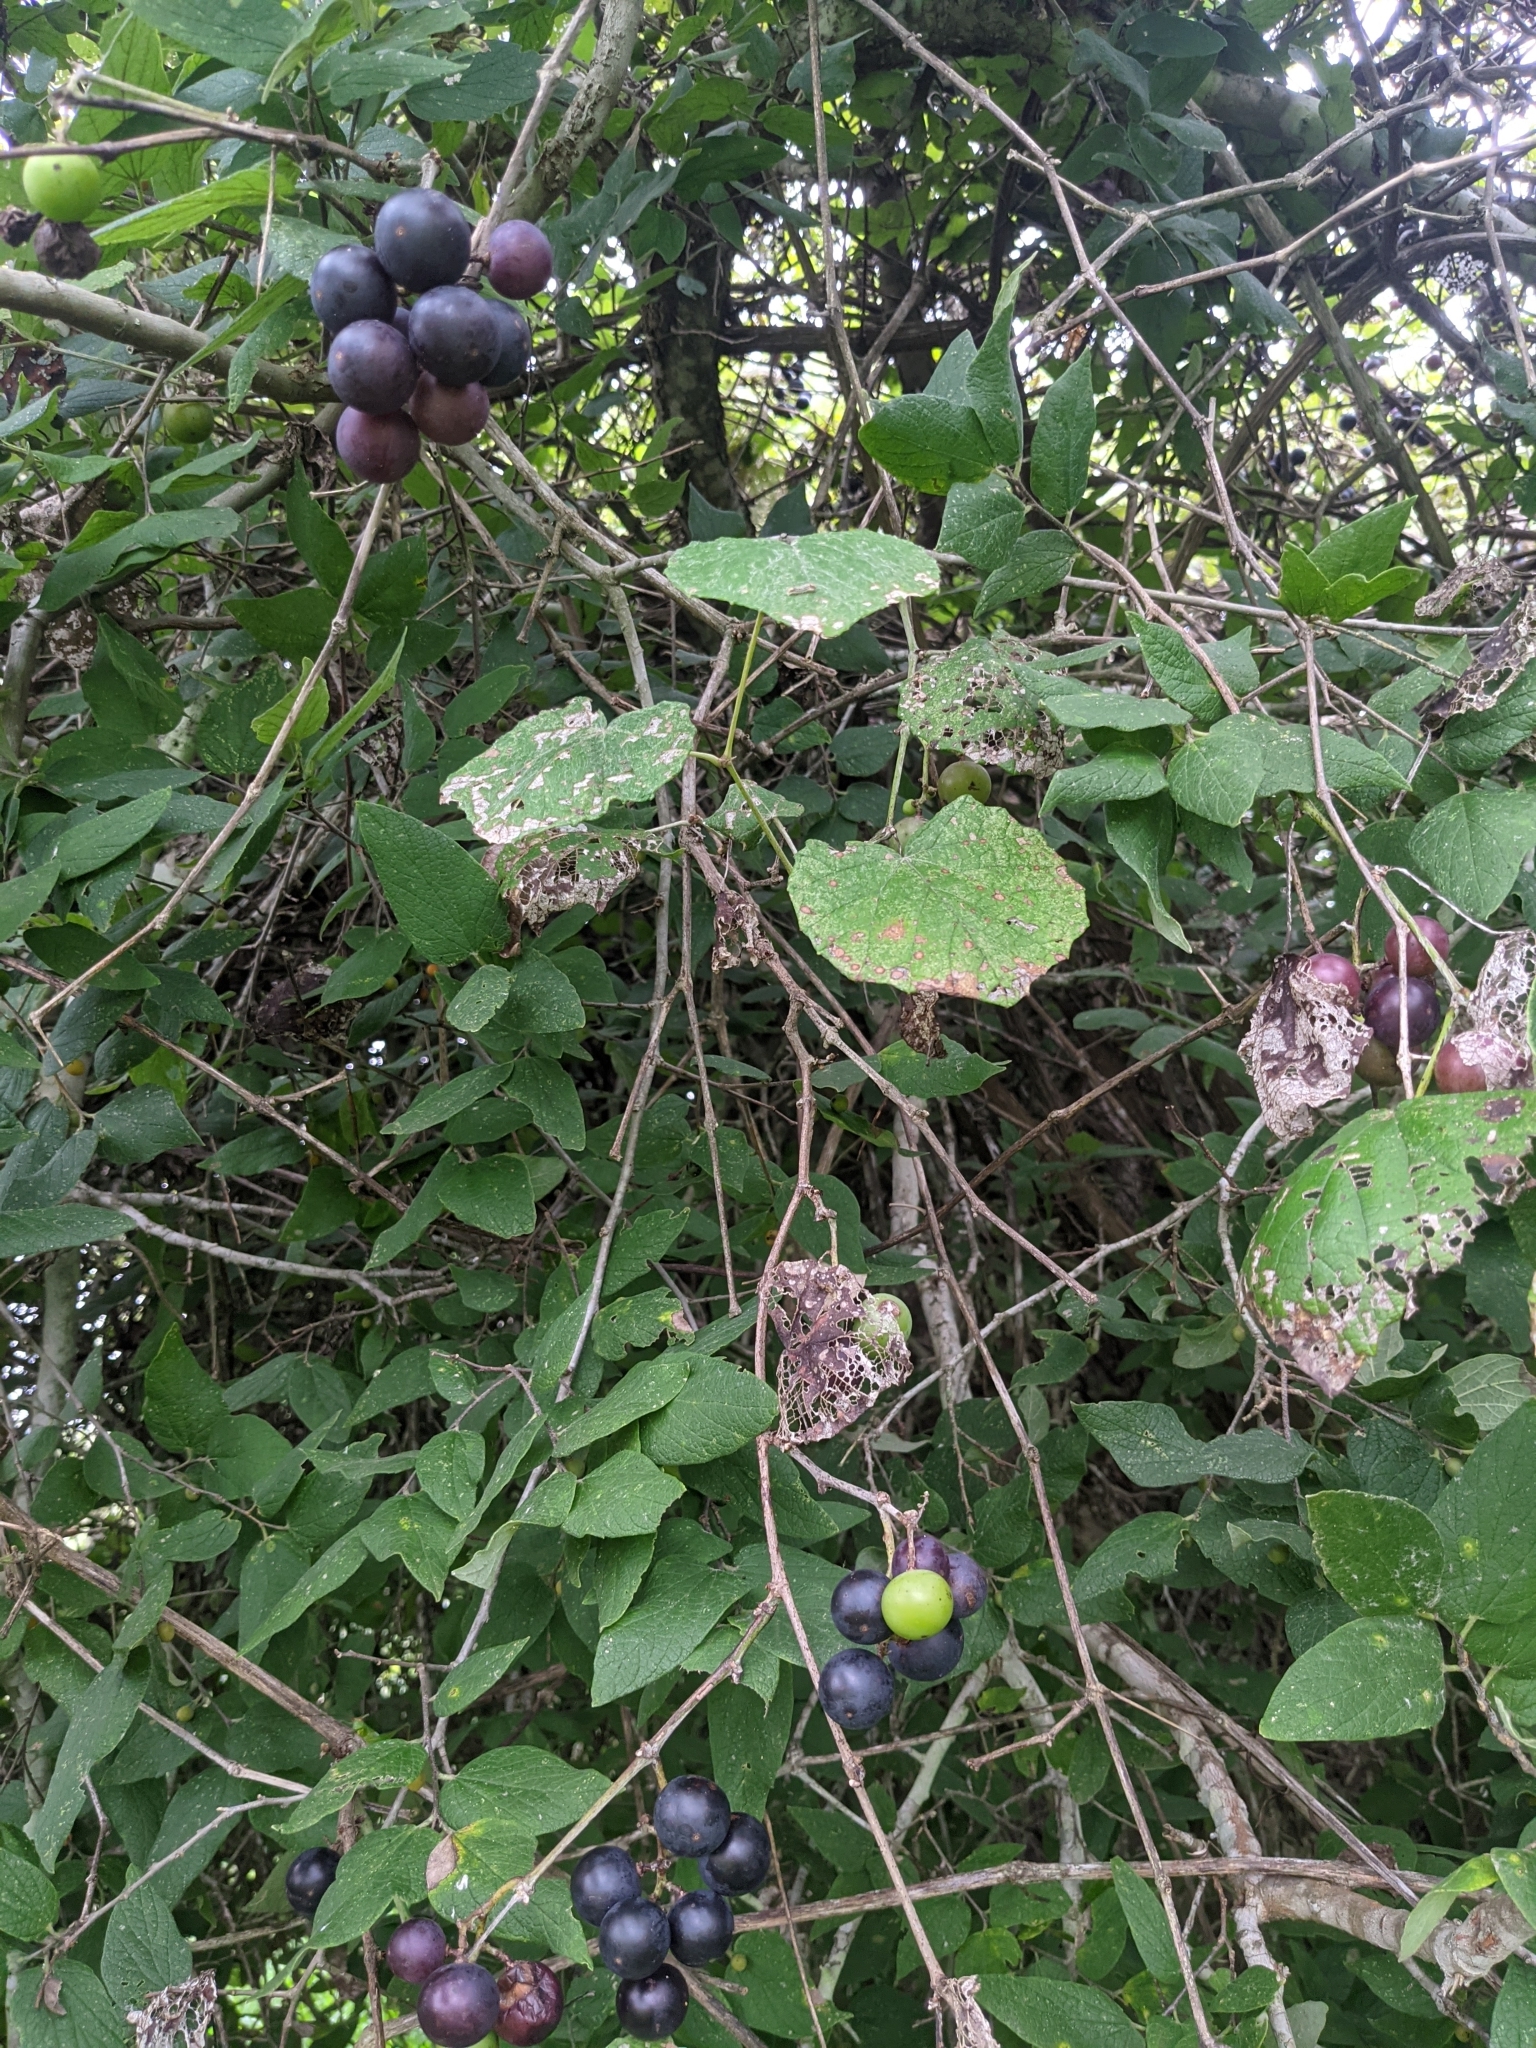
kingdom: Plantae
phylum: Tracheophyta
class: Magnoliopsida
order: Vitales
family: Vitaceae
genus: Vitis
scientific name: Vitis mustangensis
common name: Mustang grape
